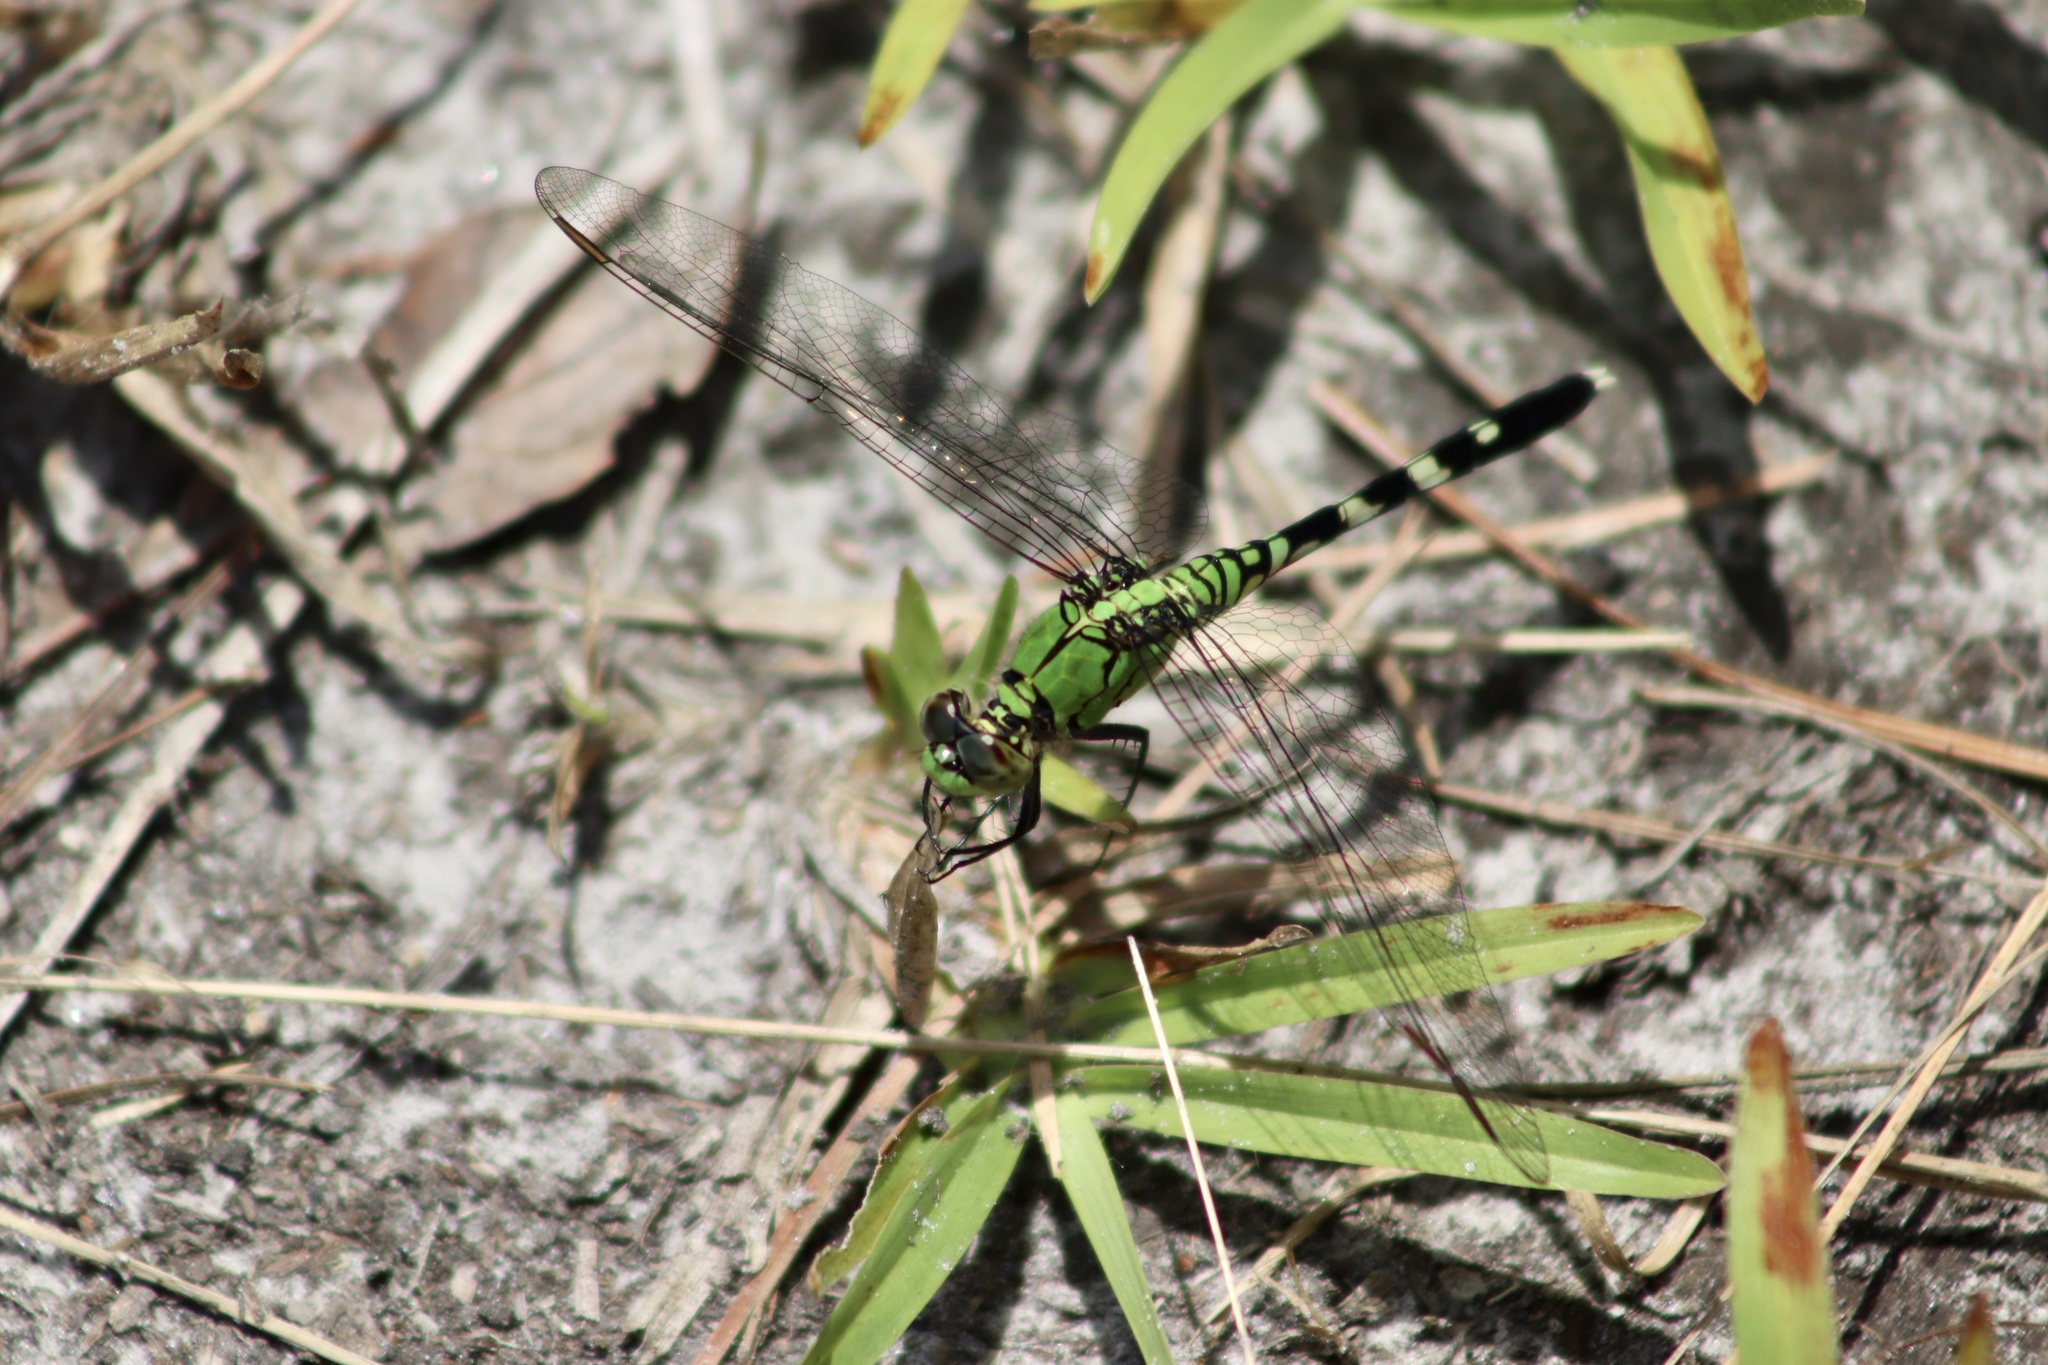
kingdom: Animalia
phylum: Arthropoda
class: Insecta
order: Odonata
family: Libellulidae
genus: Erythemis
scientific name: Erythemis simplicicollis
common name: Eastern pondhawk
